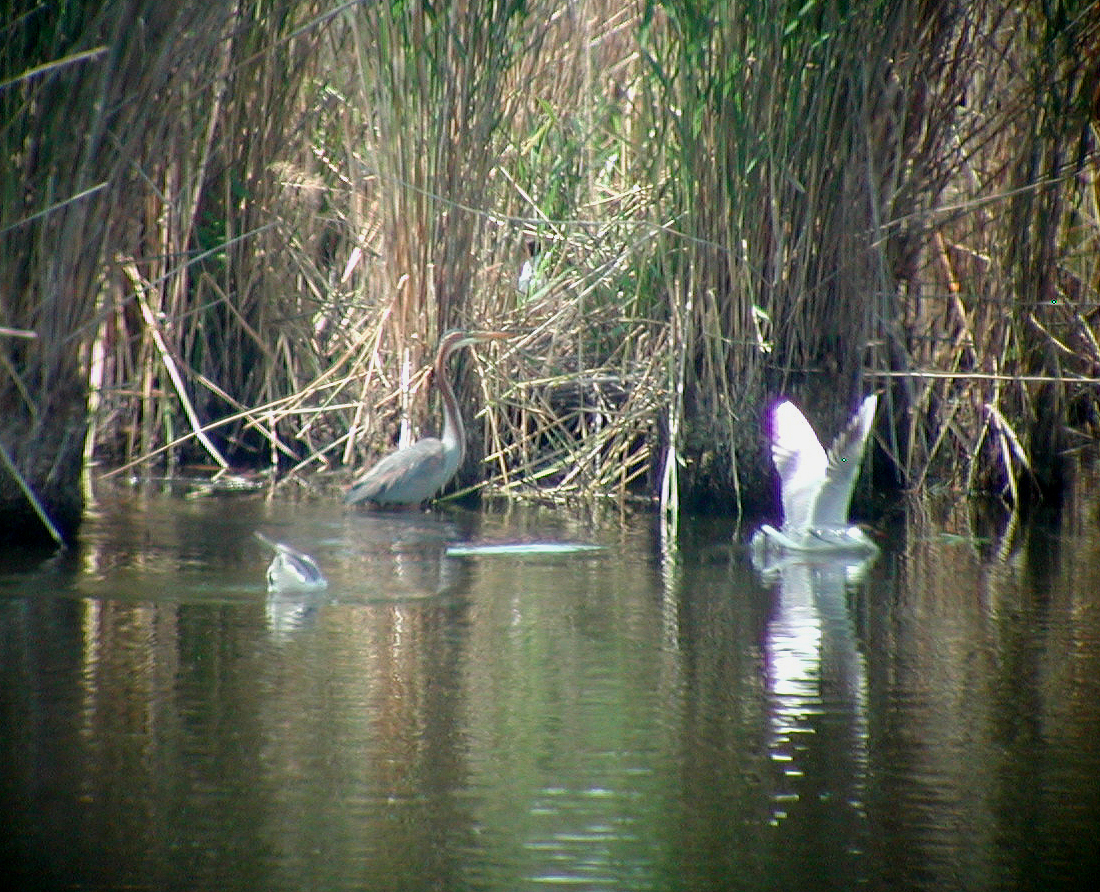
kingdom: Animalia
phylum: Chordata
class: Aves
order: Pelecaniformes
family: Ardeidae
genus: Ardea
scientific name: Ardea purpurea
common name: Purple heron
